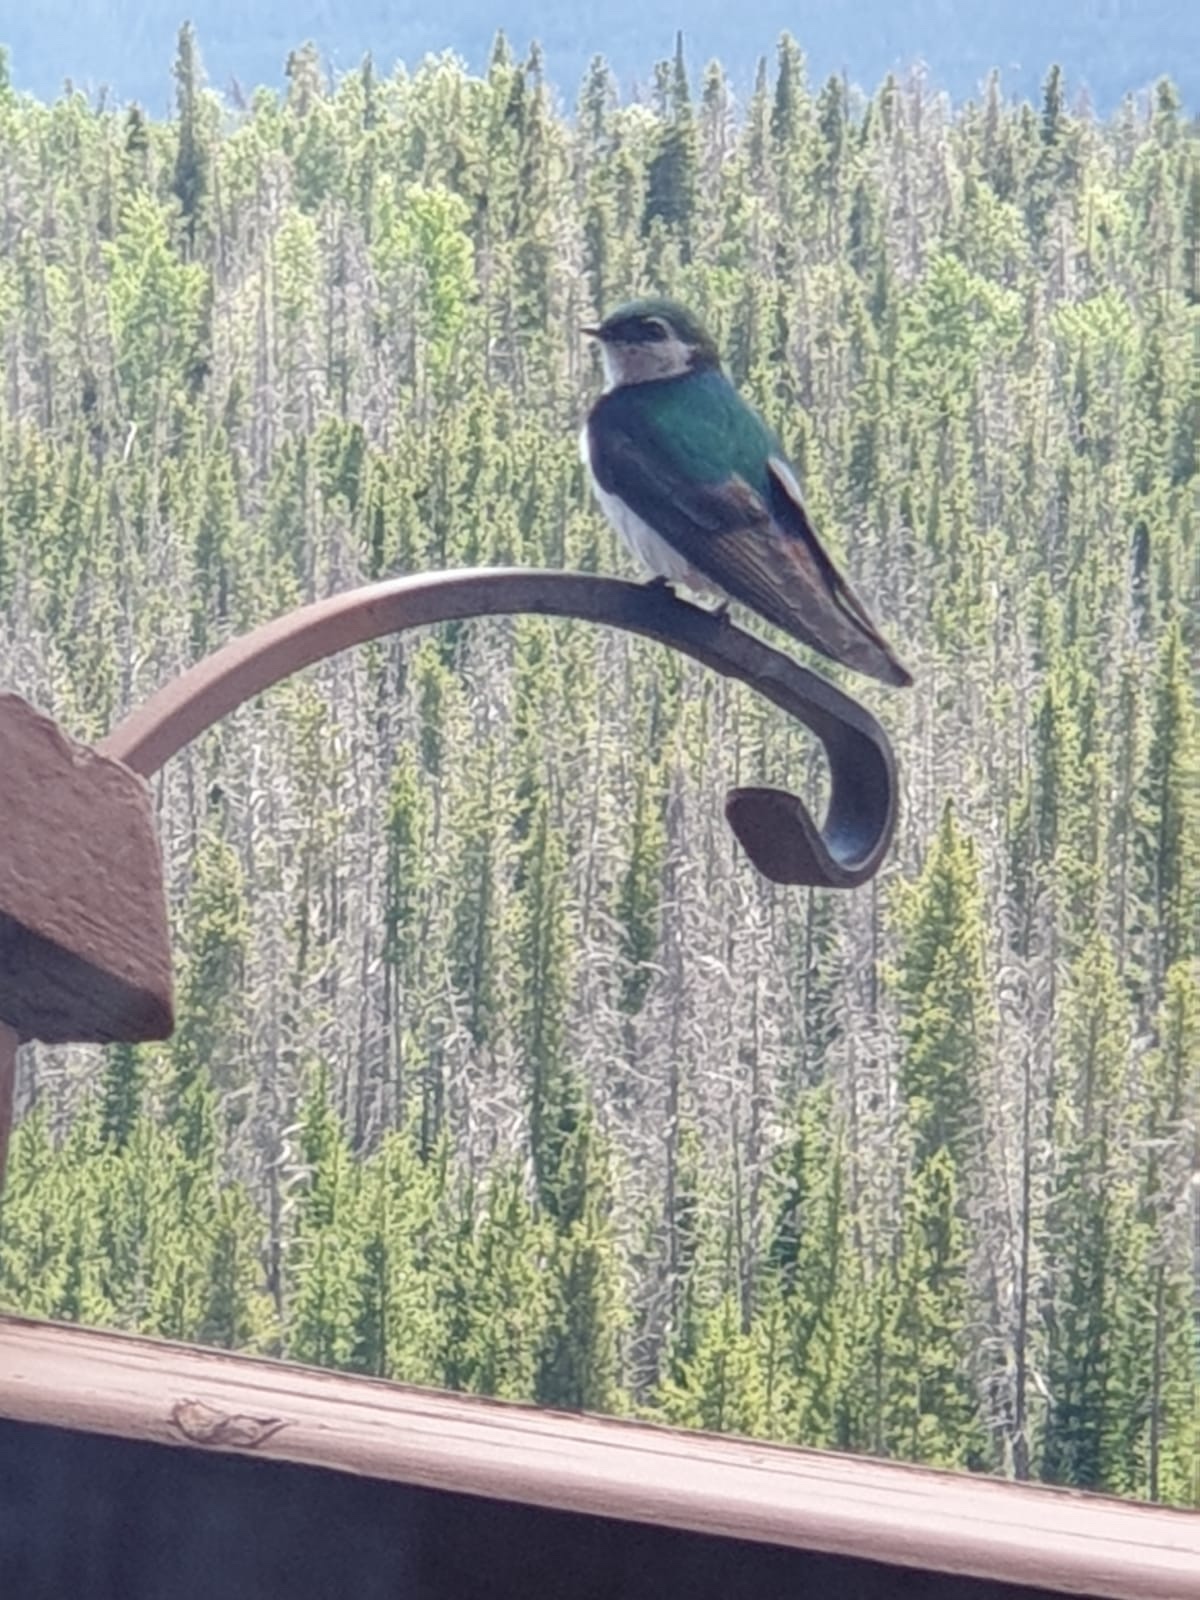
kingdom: Animalia
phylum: Chordata
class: Aves
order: Passeriformes
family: Hirundinidae
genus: Tachycineta
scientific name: Tachycineta thalassina
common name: Violet-green swallow
